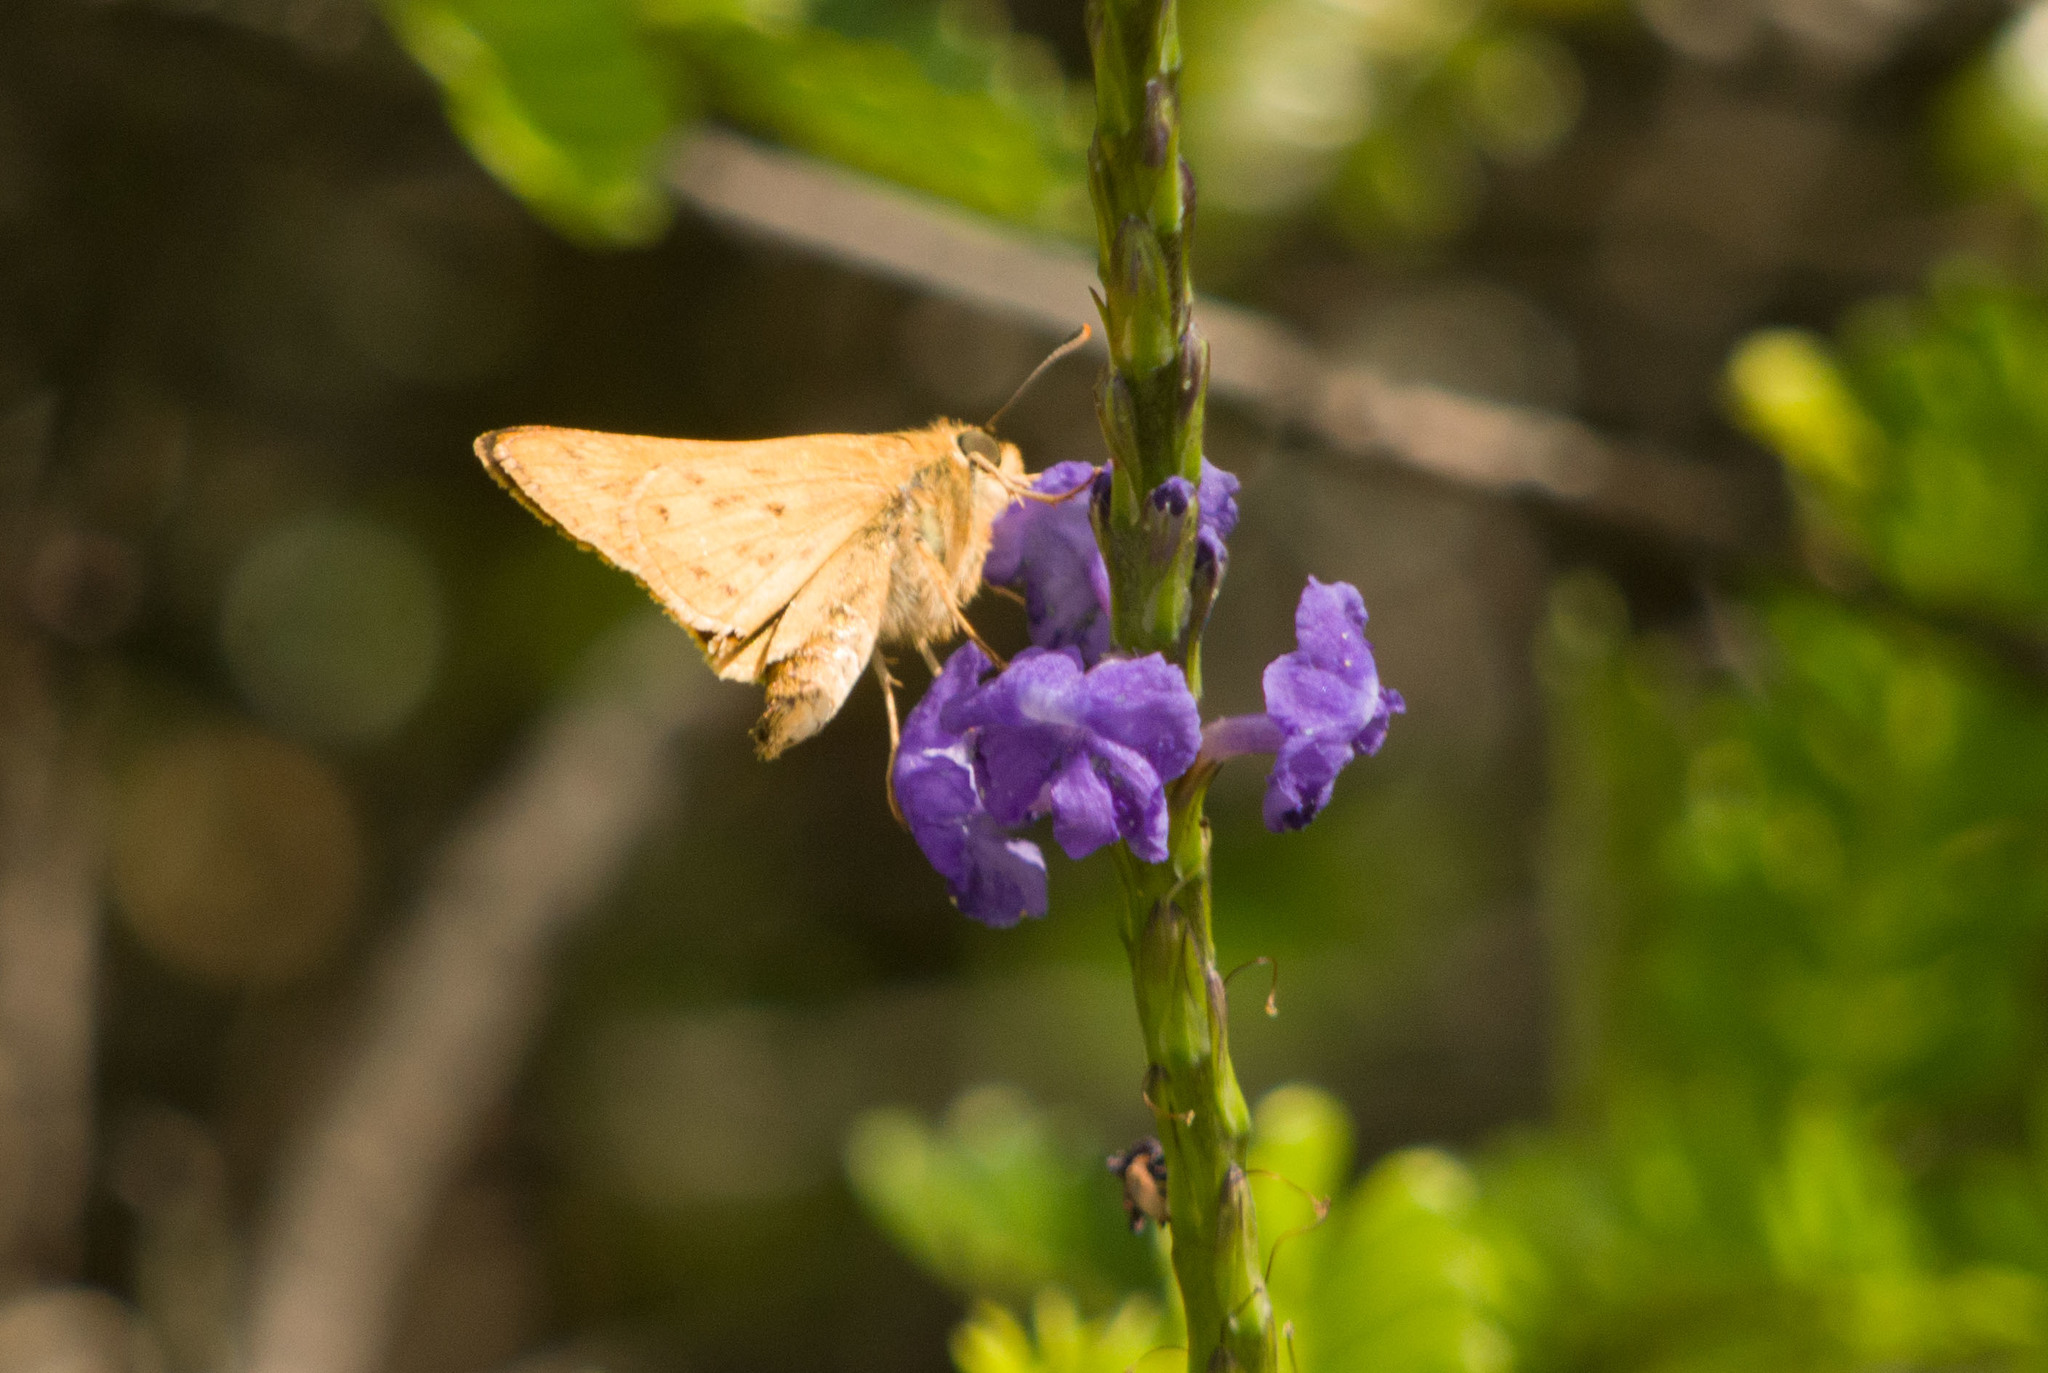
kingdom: Animalia
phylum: Arthropoda
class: Insecta
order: Lepidoptera
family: Hesperiidae
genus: Hylephila
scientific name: Hylephila phyleus
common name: Fiery skipper
